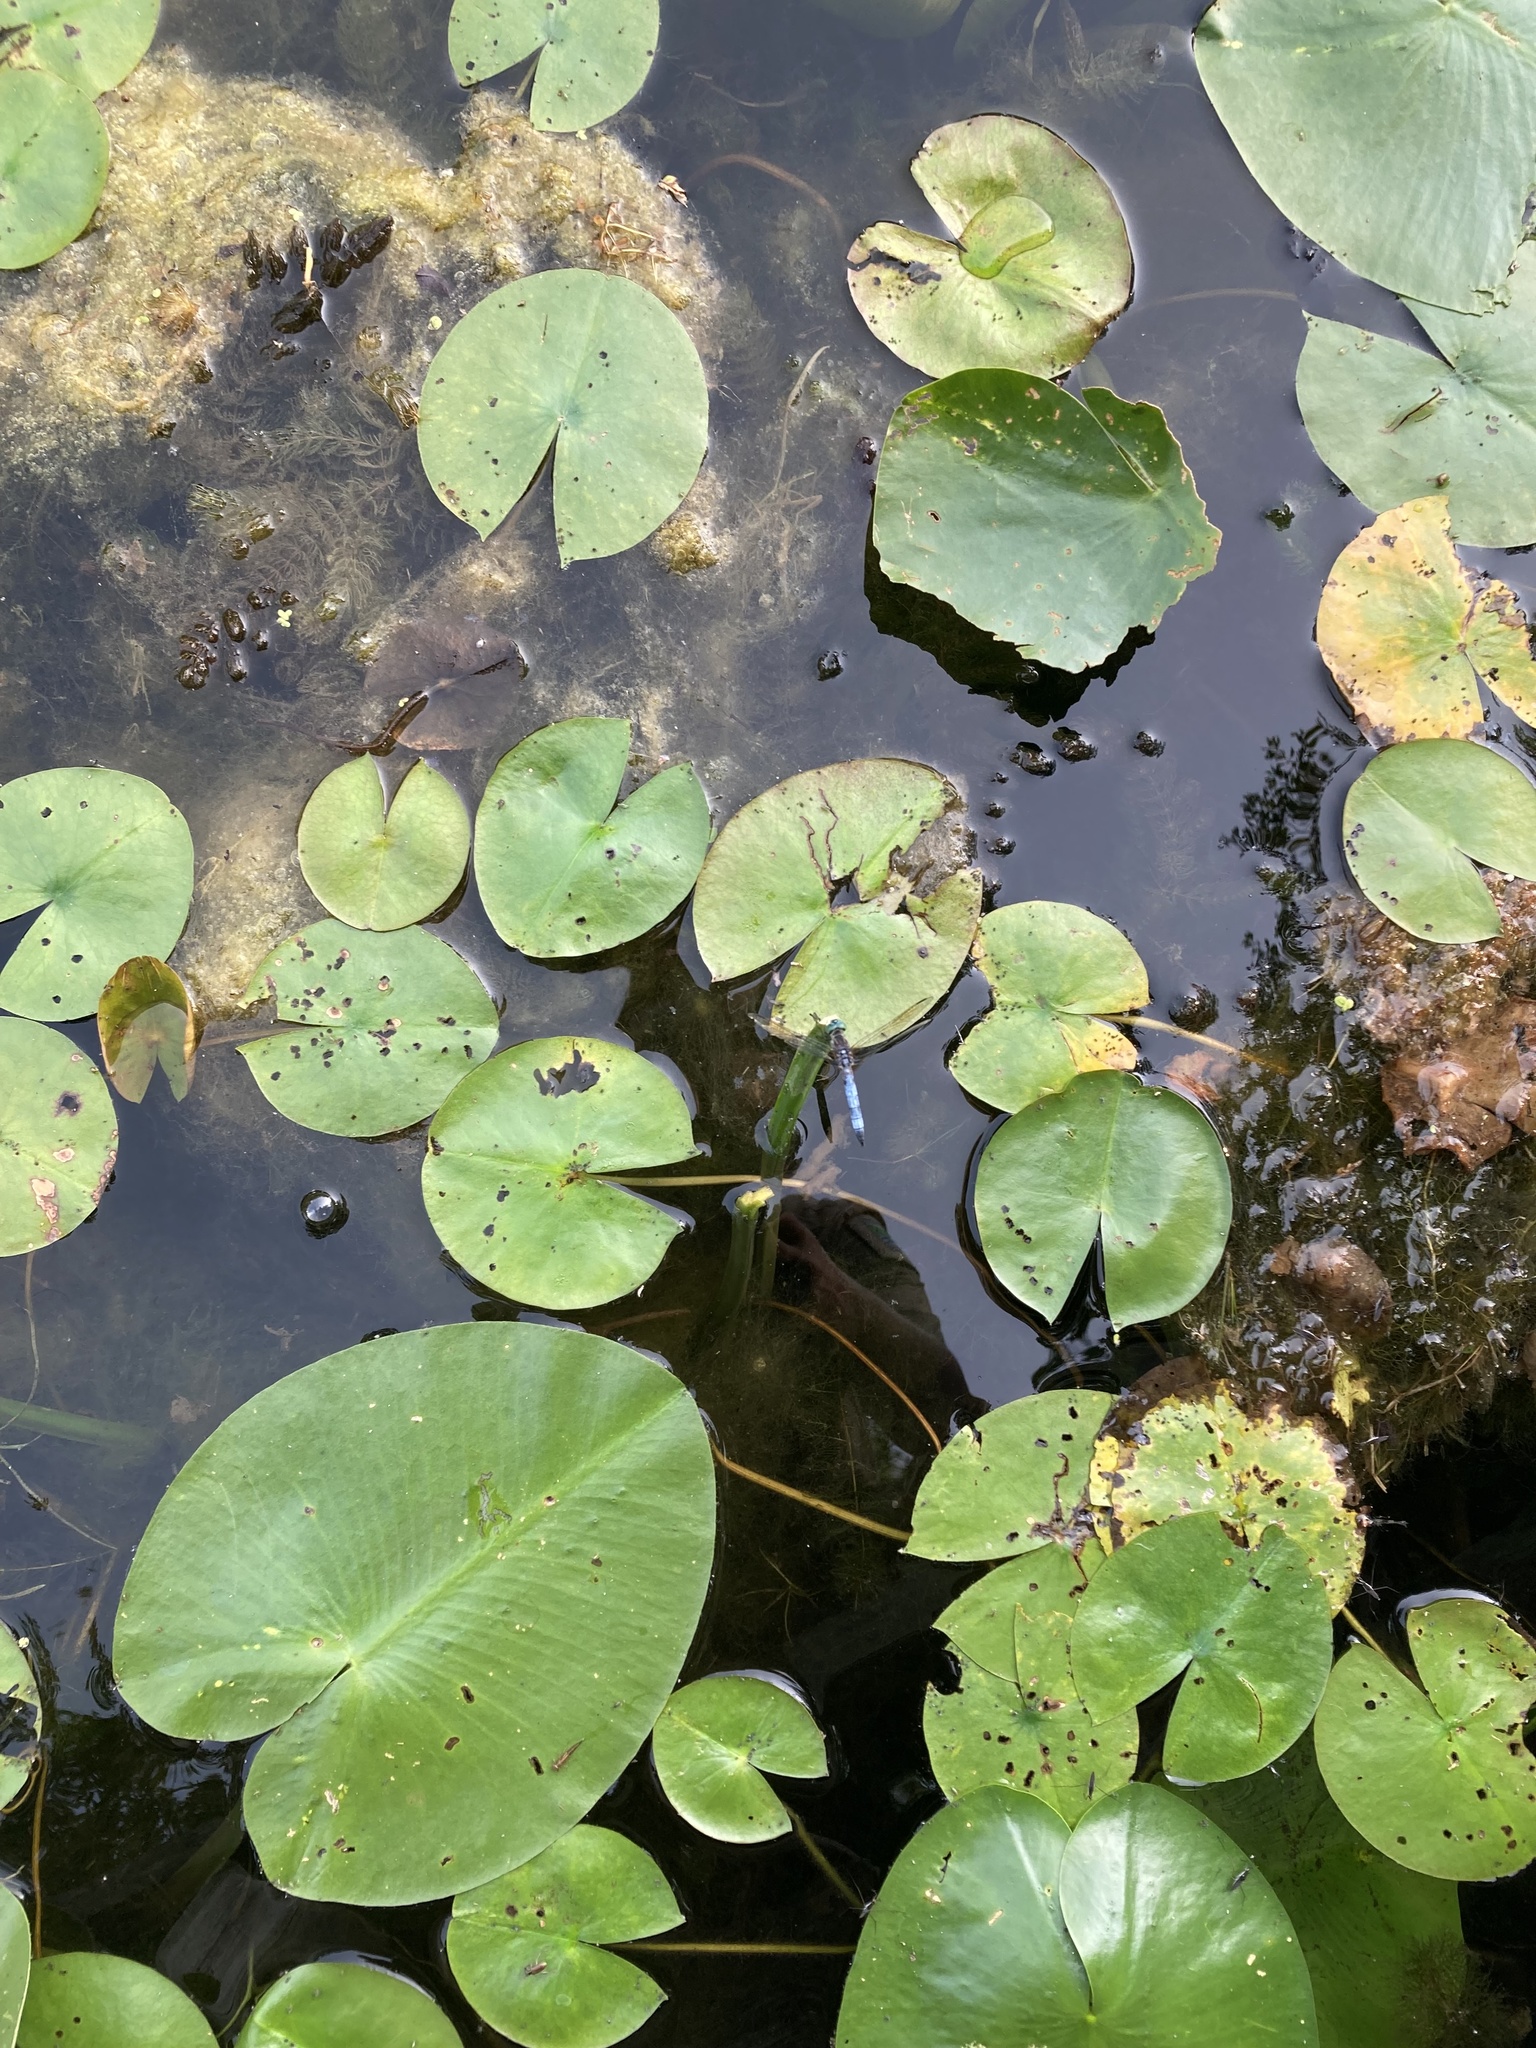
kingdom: Animalia
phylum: Arthropoda
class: Insecta
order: Odonata
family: Libellulidae
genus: Pachydiplax
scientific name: Pachydiplax longipennis
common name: Blue dasher
